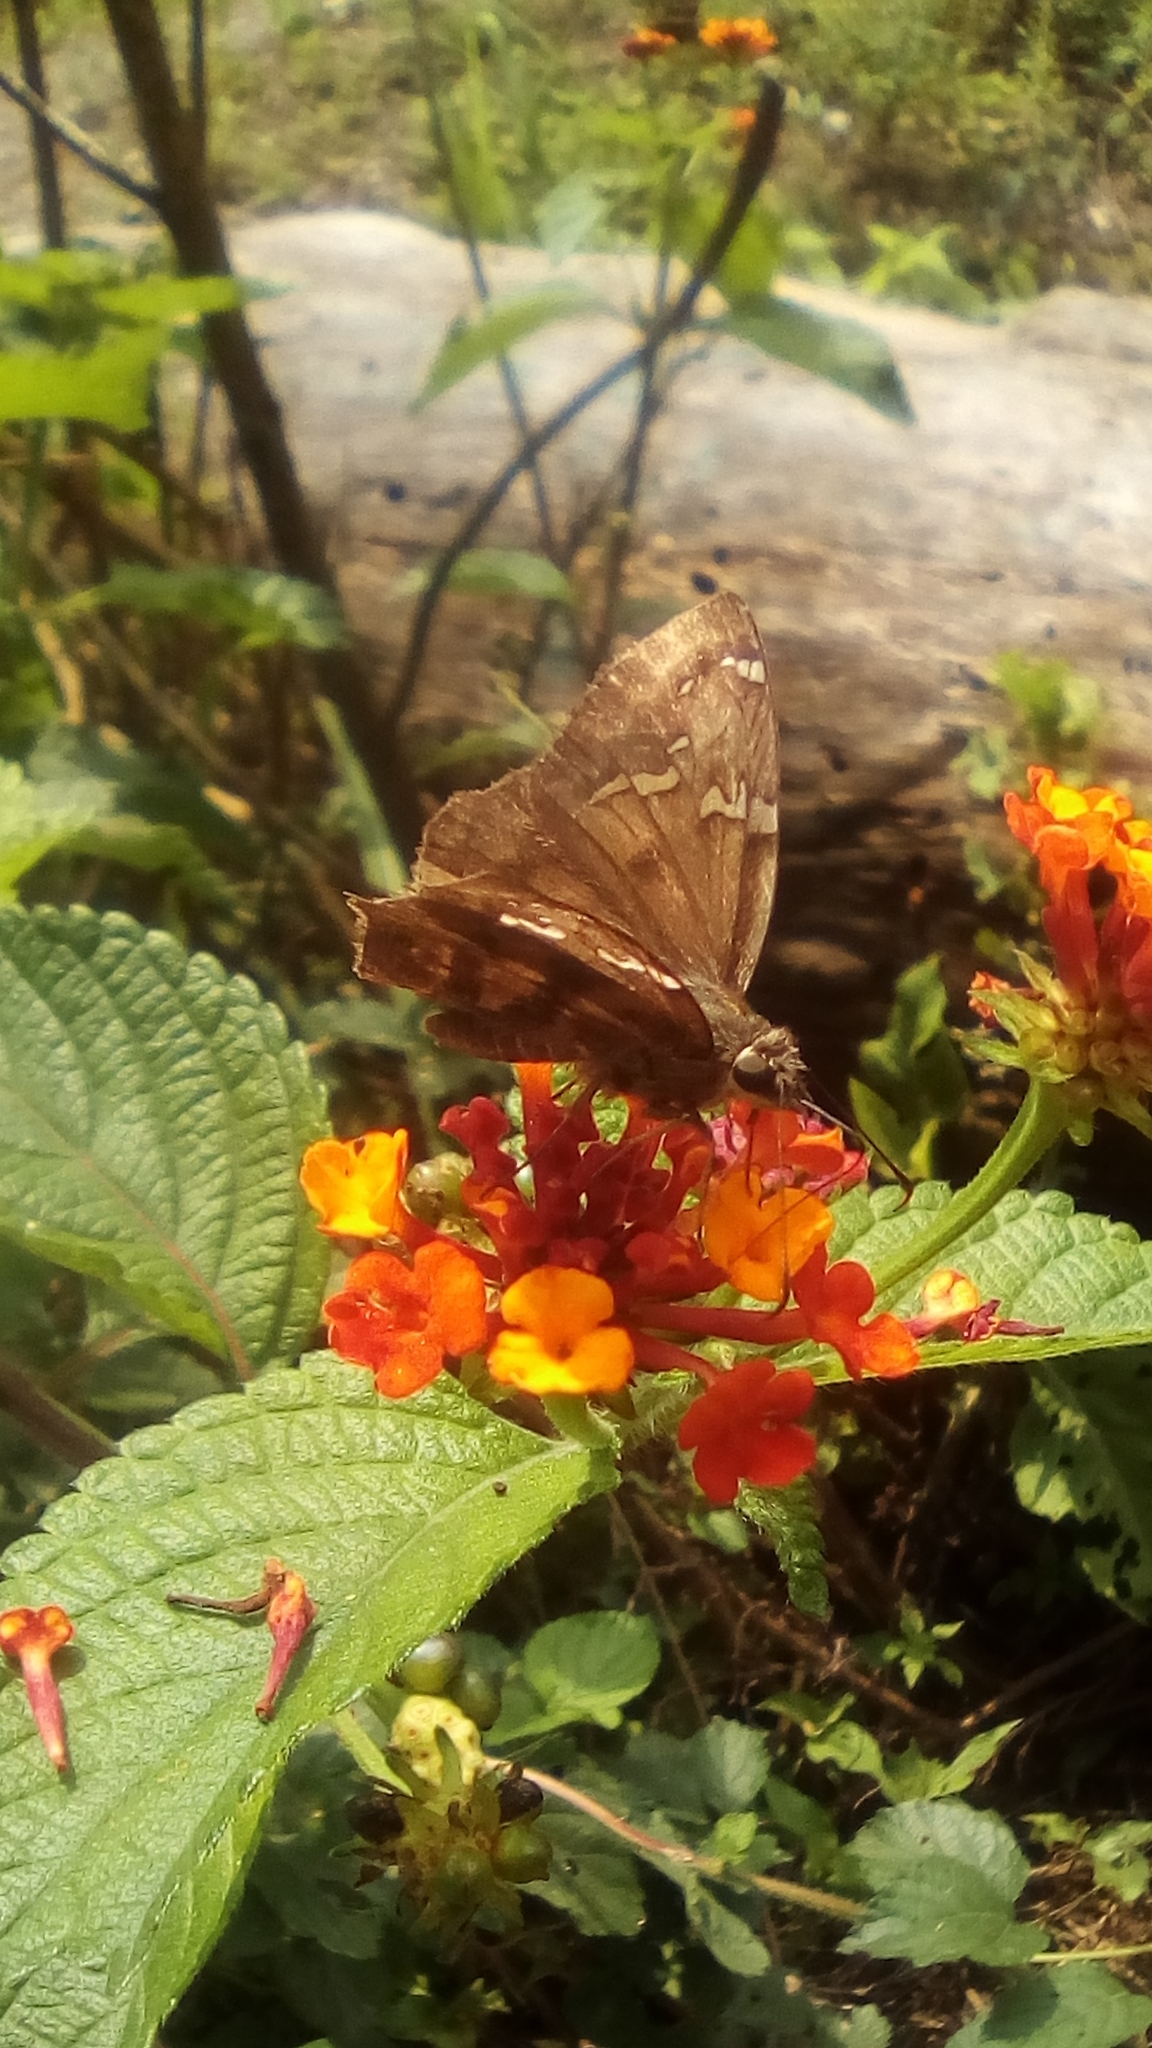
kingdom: Animalia
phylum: Arthropoda
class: Insecta
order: Lepidoptera
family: Hesperiidae
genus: Autochton
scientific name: Autochton potrillo
